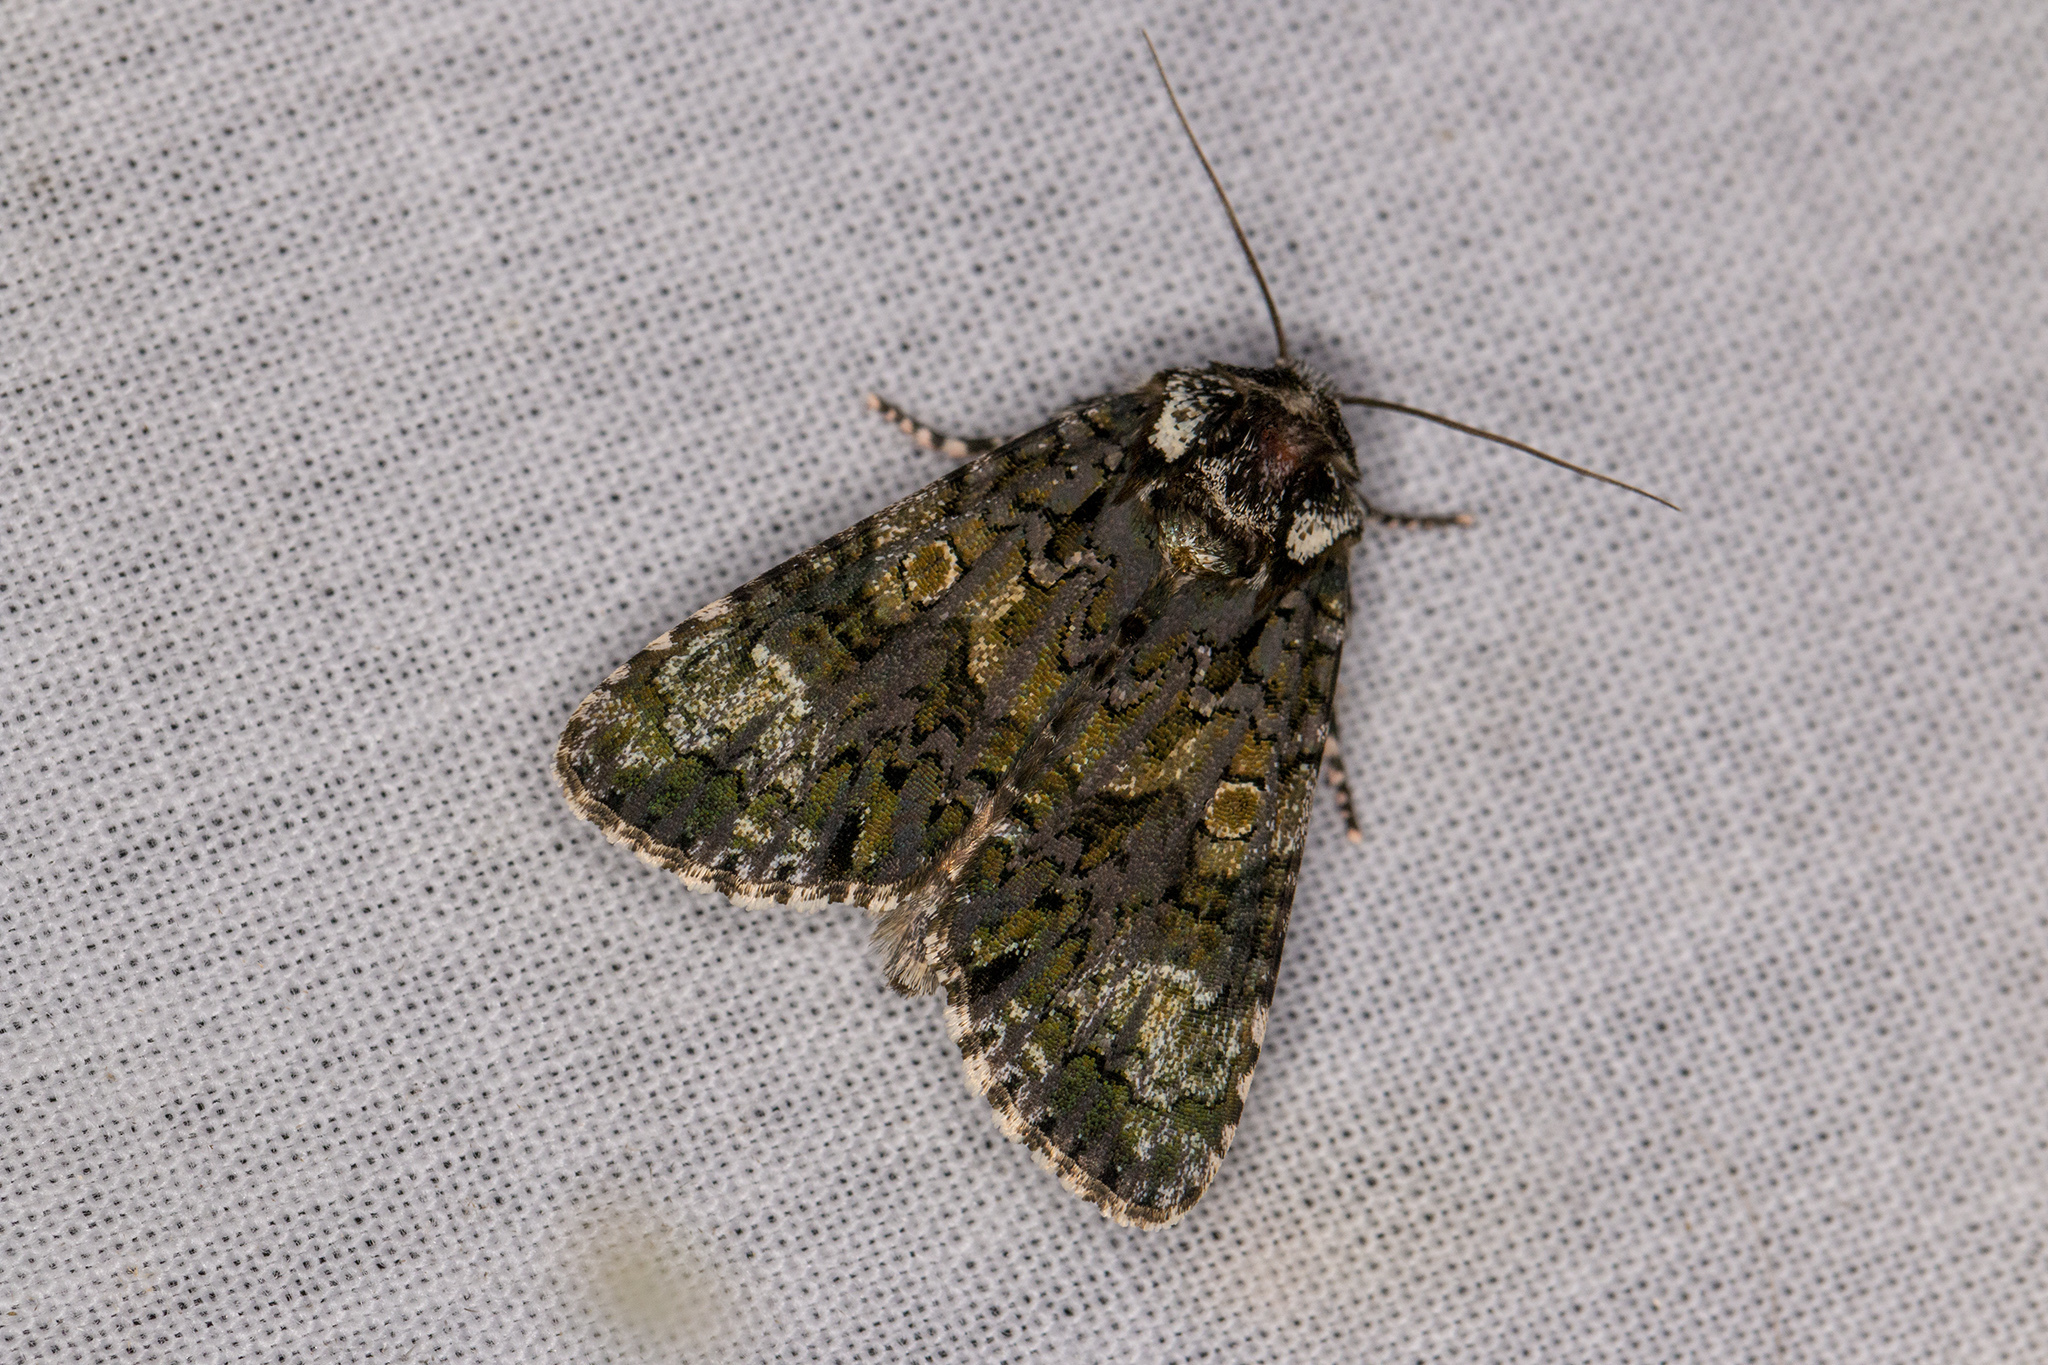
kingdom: Animalia
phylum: Arthropoda
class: Insecta
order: Lepidoptera
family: Noctuidae
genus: Craniophora
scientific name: Craniophora ligustri
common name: Coronet
